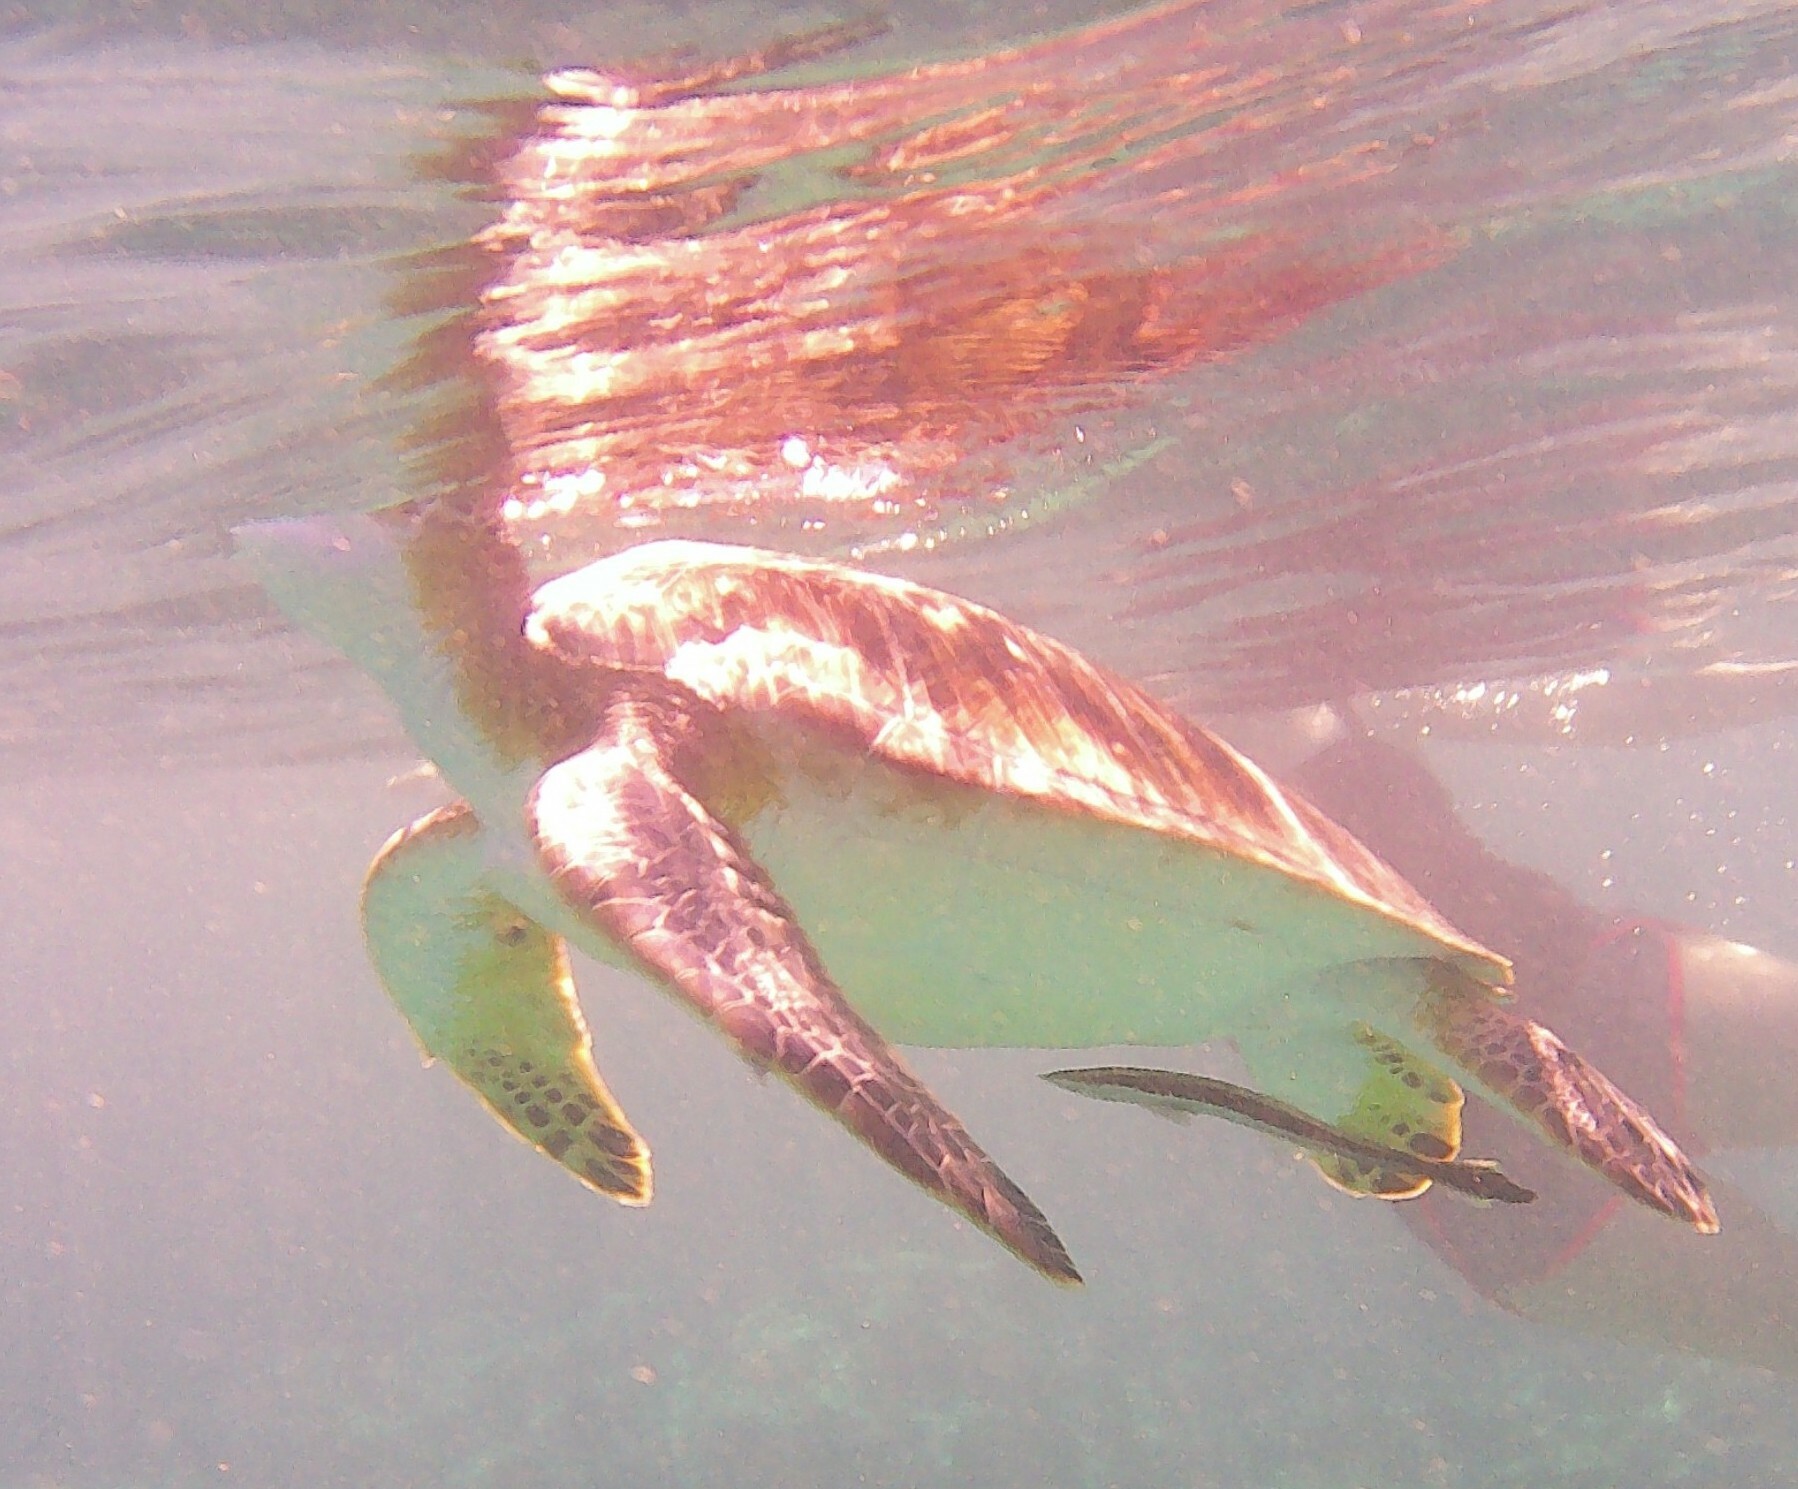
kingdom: Animalia
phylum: Chordata
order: Perciformes
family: Echeneidae
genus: Echeneis
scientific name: Echeneis naucrates
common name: Sharksucker
